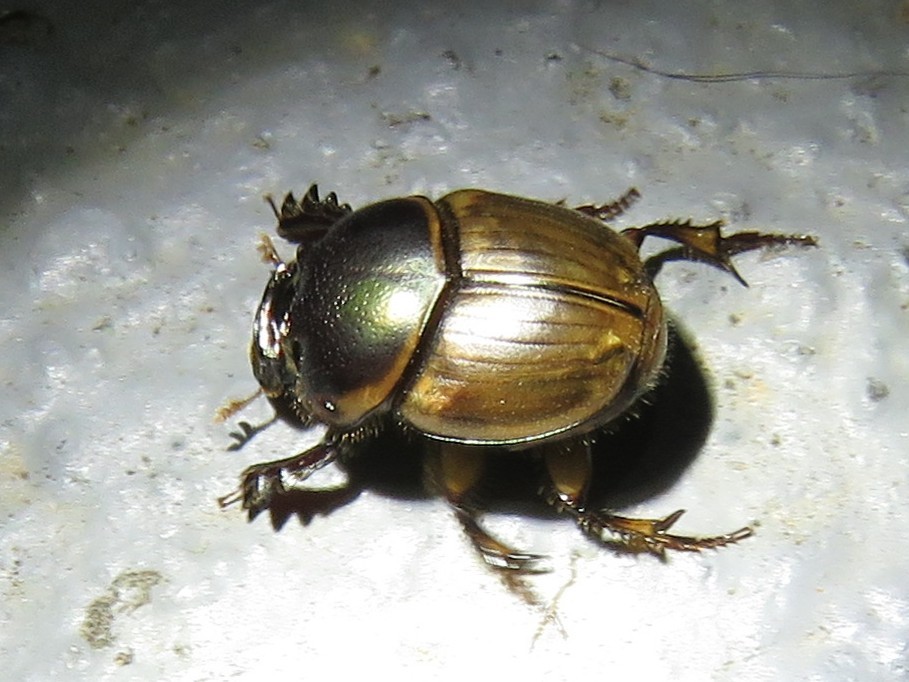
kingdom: Animalia
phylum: Arthropoda
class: Insecta
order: Coleoptera
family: Scarabaeidae
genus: Digitonthophagus
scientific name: Digitonthophagus gazella
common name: Brown dung beetle
